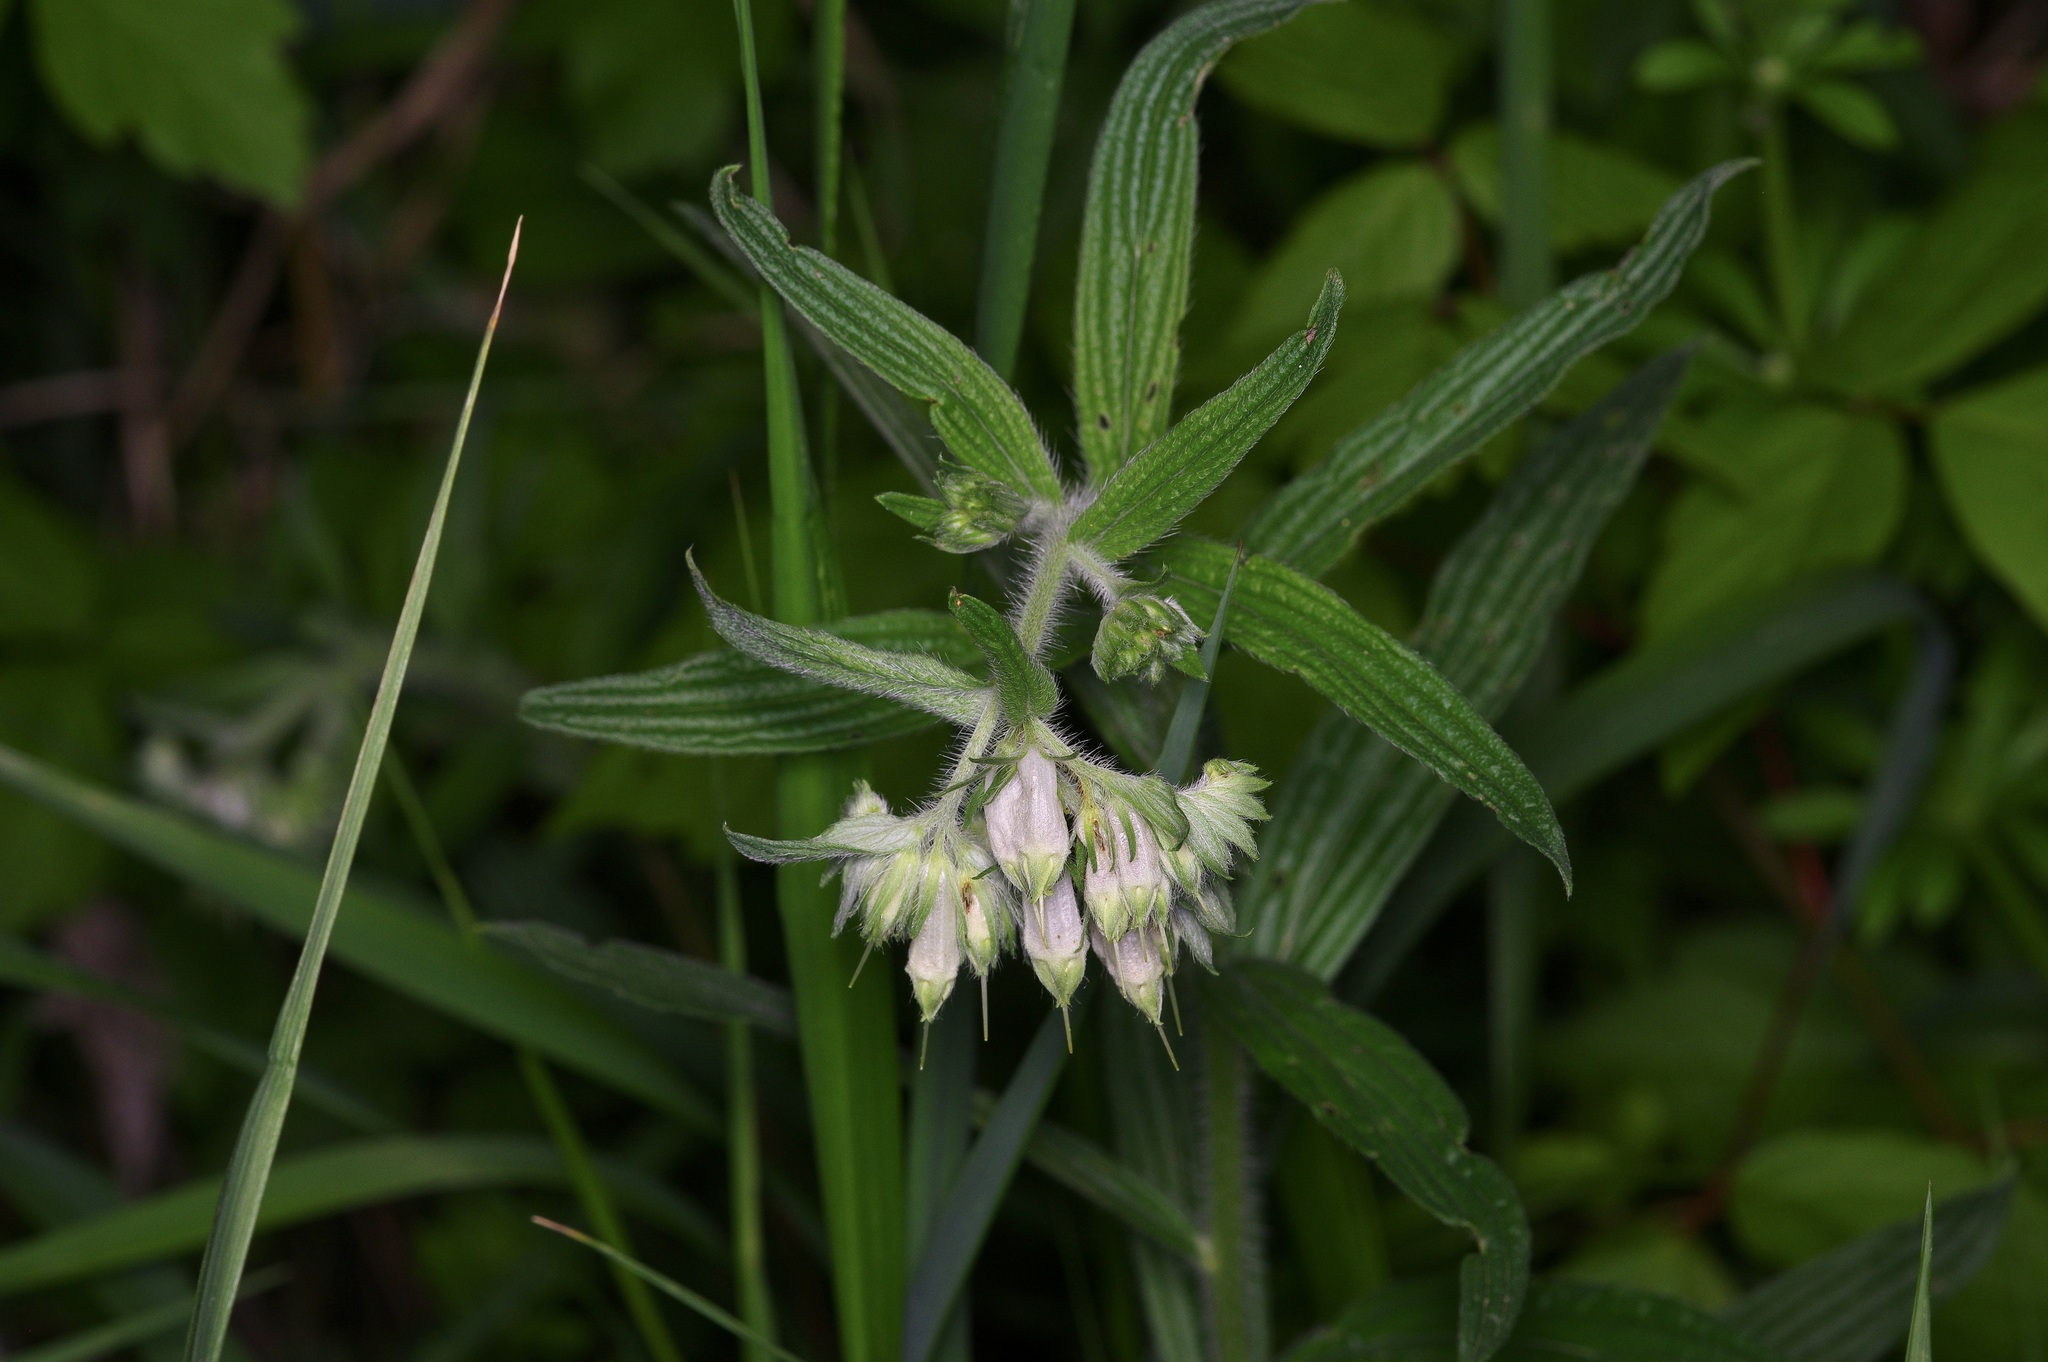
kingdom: Plantae
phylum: Tracheophyta
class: Magnoliopsida
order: Boraginales
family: Boraginaceae
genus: Lithospermum
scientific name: Lithospermum caroliniense
